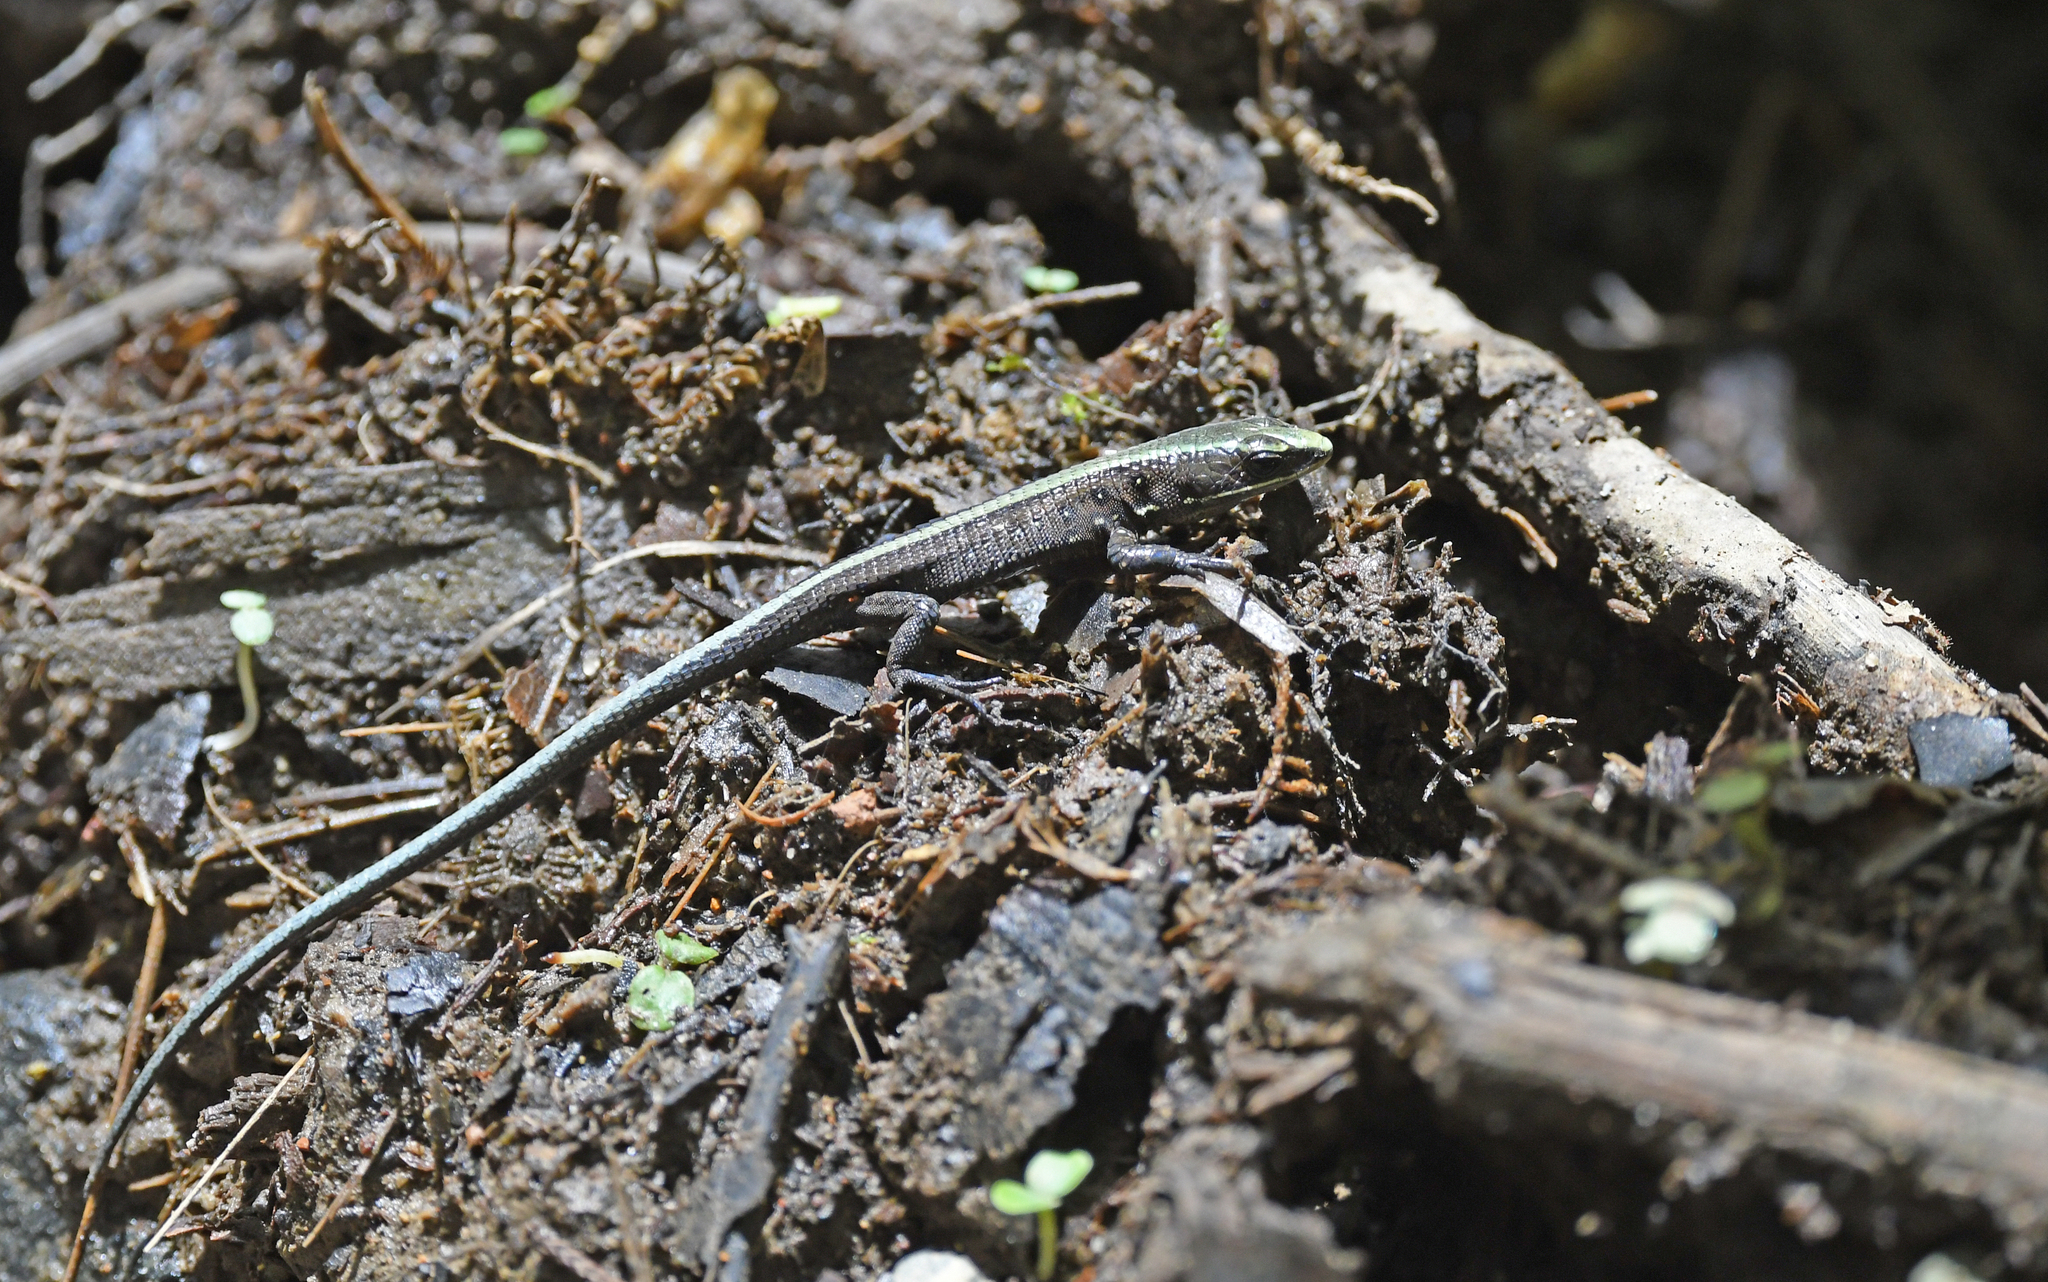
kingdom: Animalia
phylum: Chordata
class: Squamata
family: Gymnophthalmidae
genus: Pholidobolus
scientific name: Pholidobolus vertebralis
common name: Brown prionodactylus
